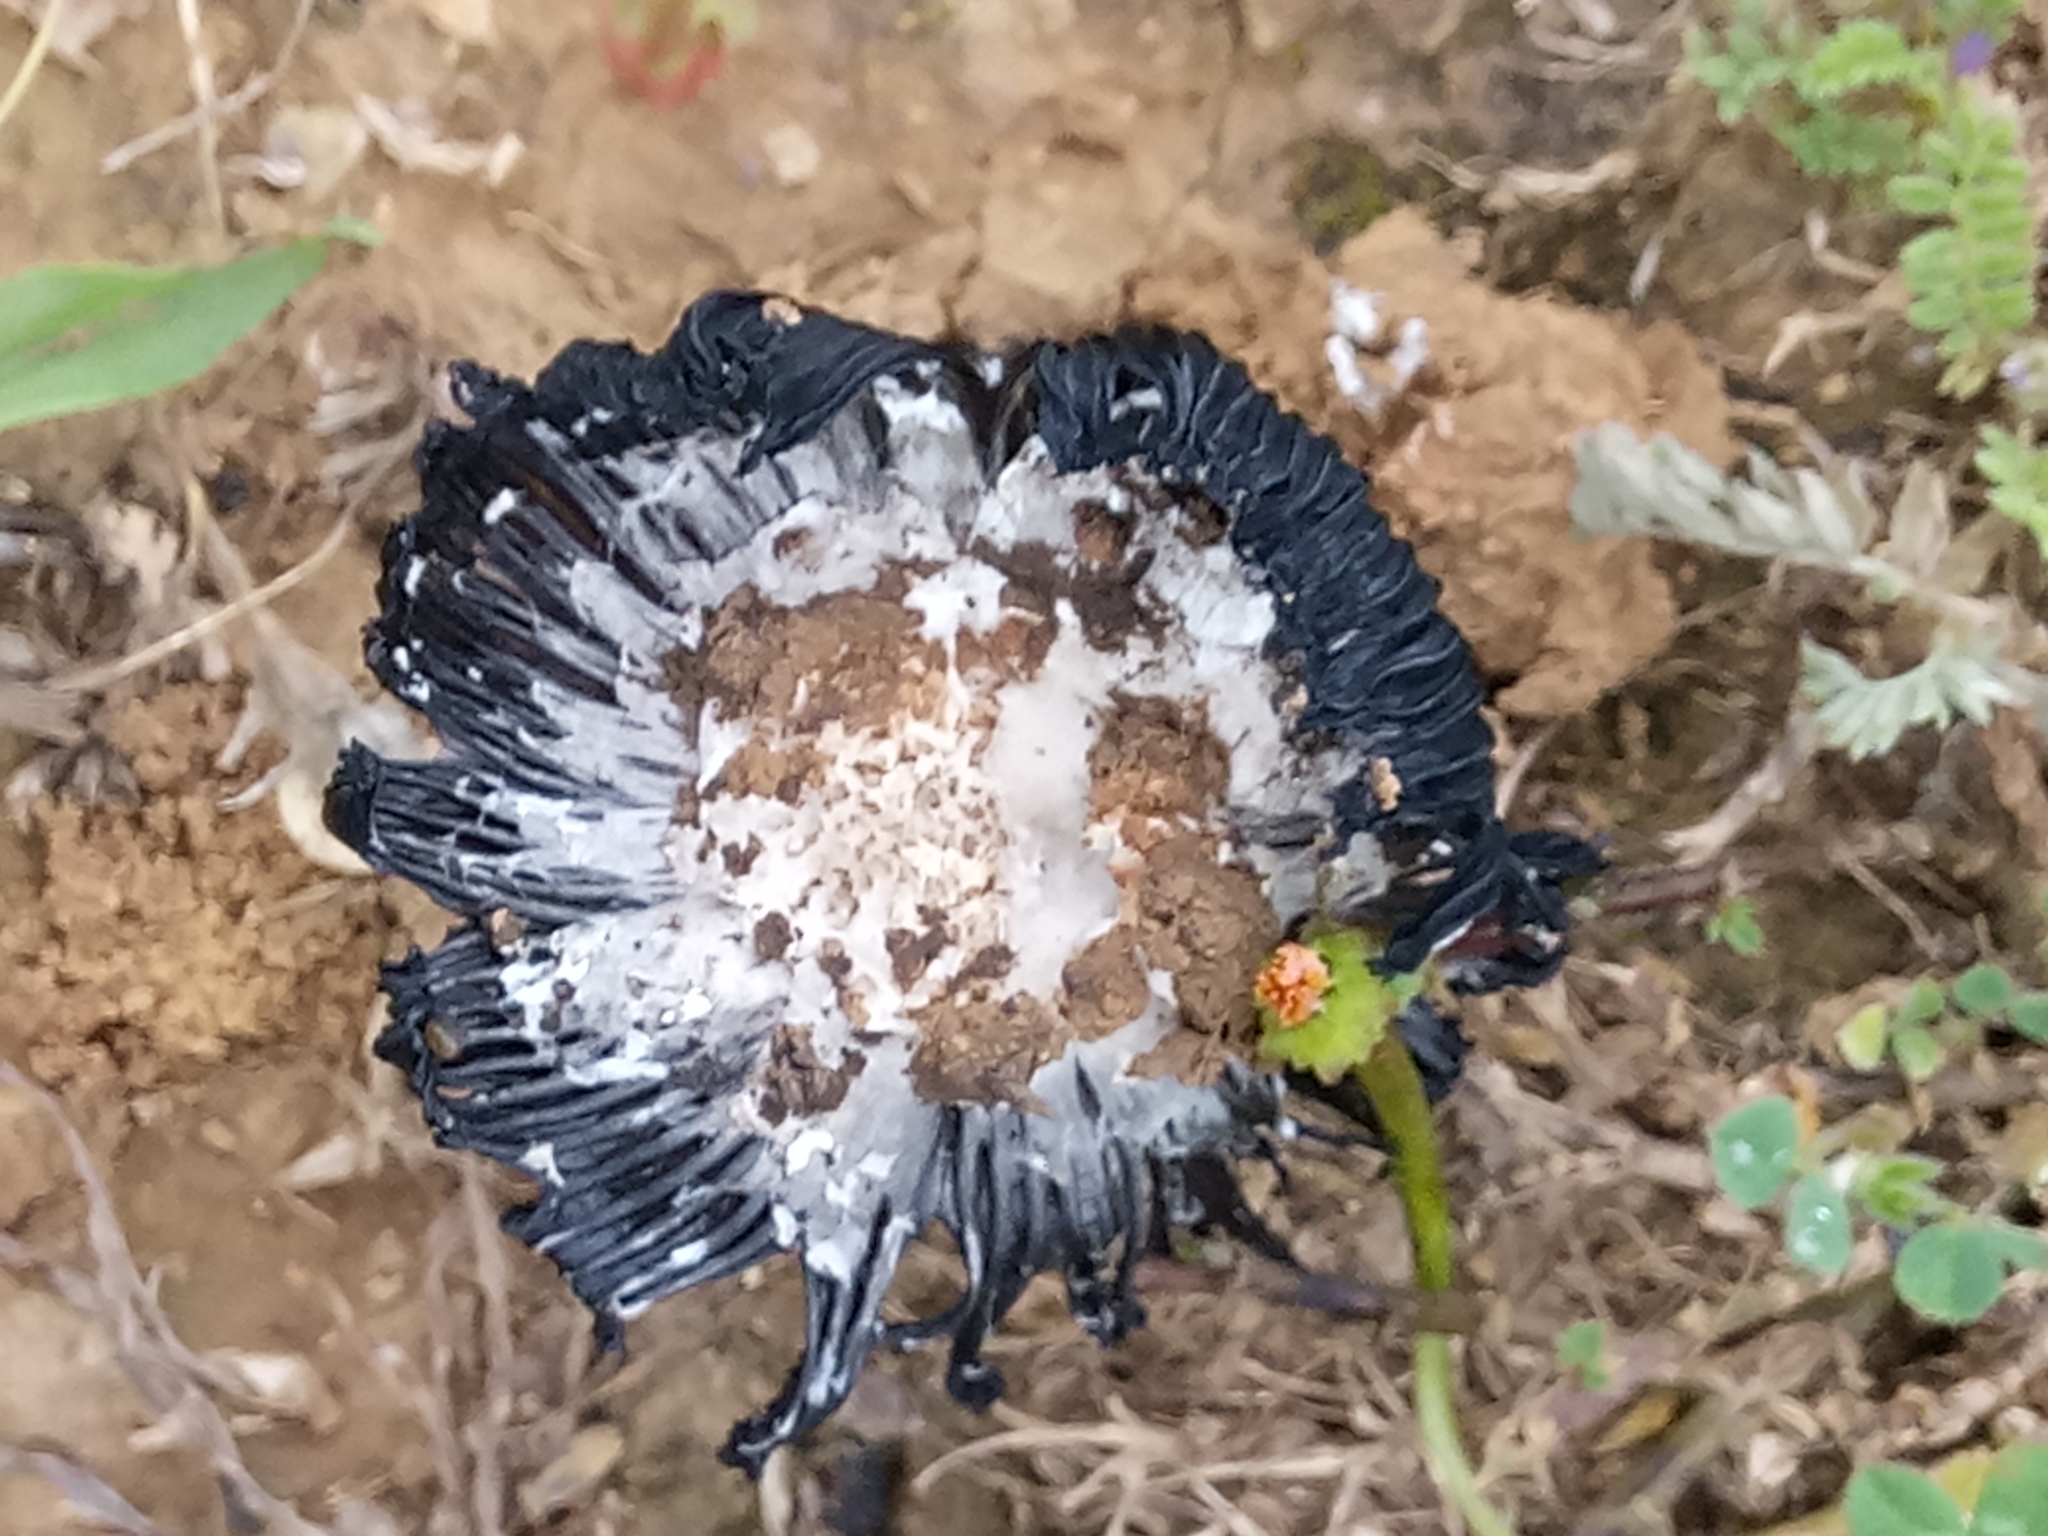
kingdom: Fungi
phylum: Basidiomycota
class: Agaricomycetes
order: Agaricales
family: Agaricaceae
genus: Coprinus
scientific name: Coprinus xerophilus
